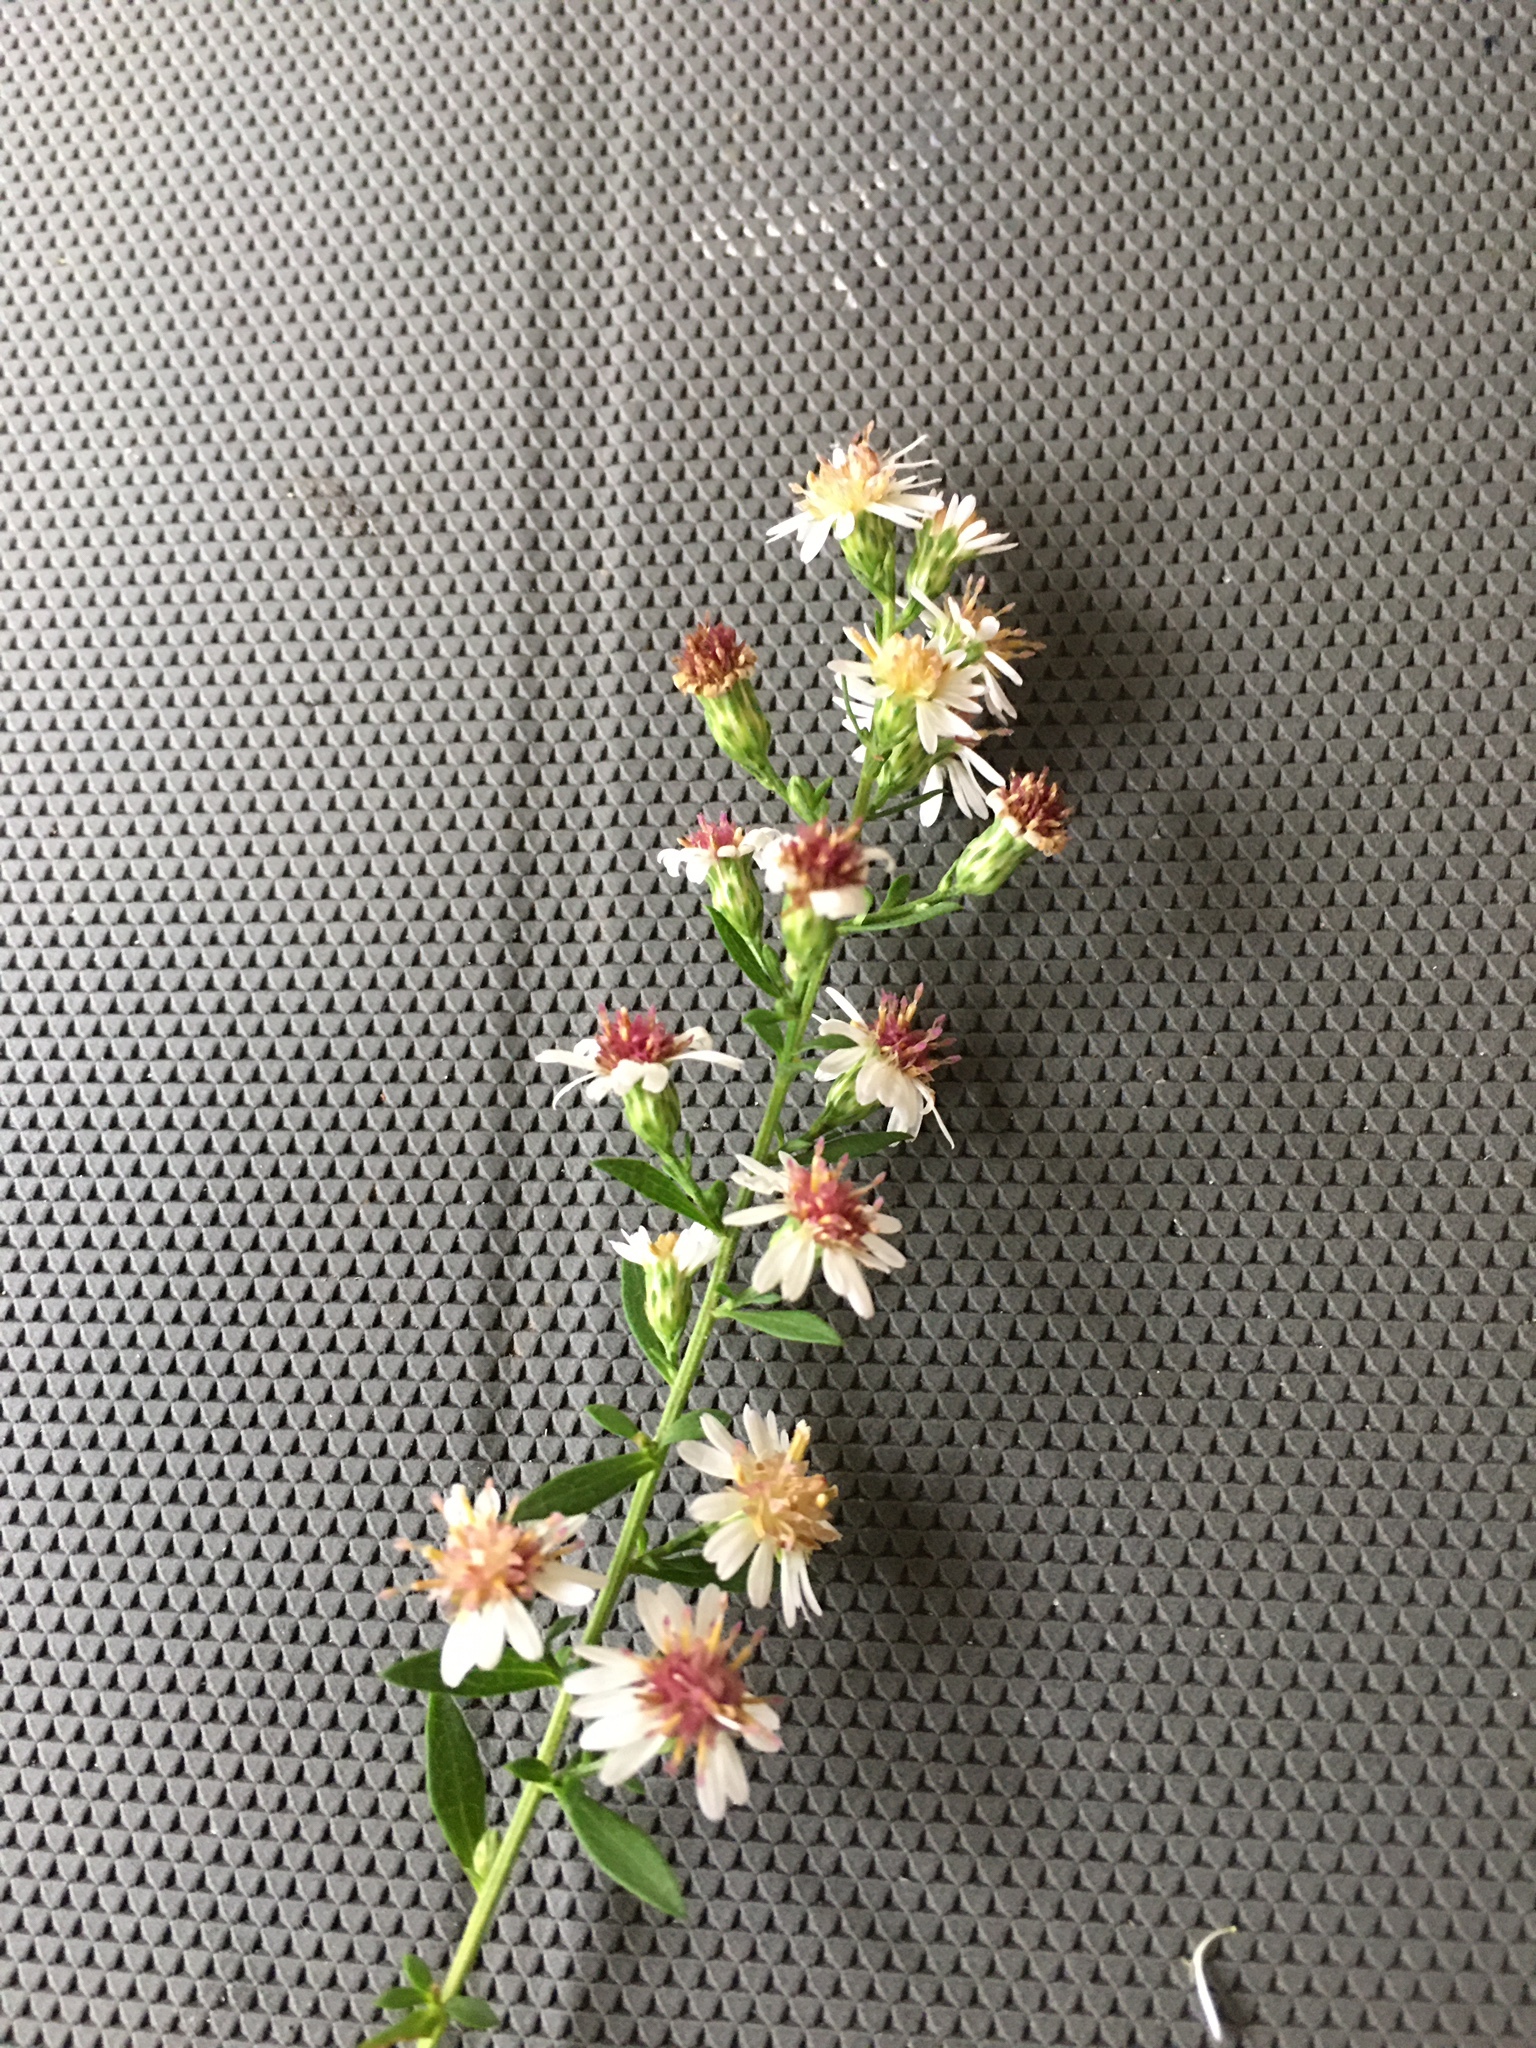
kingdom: Plantae
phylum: Tracheophyta
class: Magnoliopsida
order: Asterales
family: Asteraceae
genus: Symphyotrichum
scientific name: Symphyotrichum lateriflorum
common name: Calico aster
